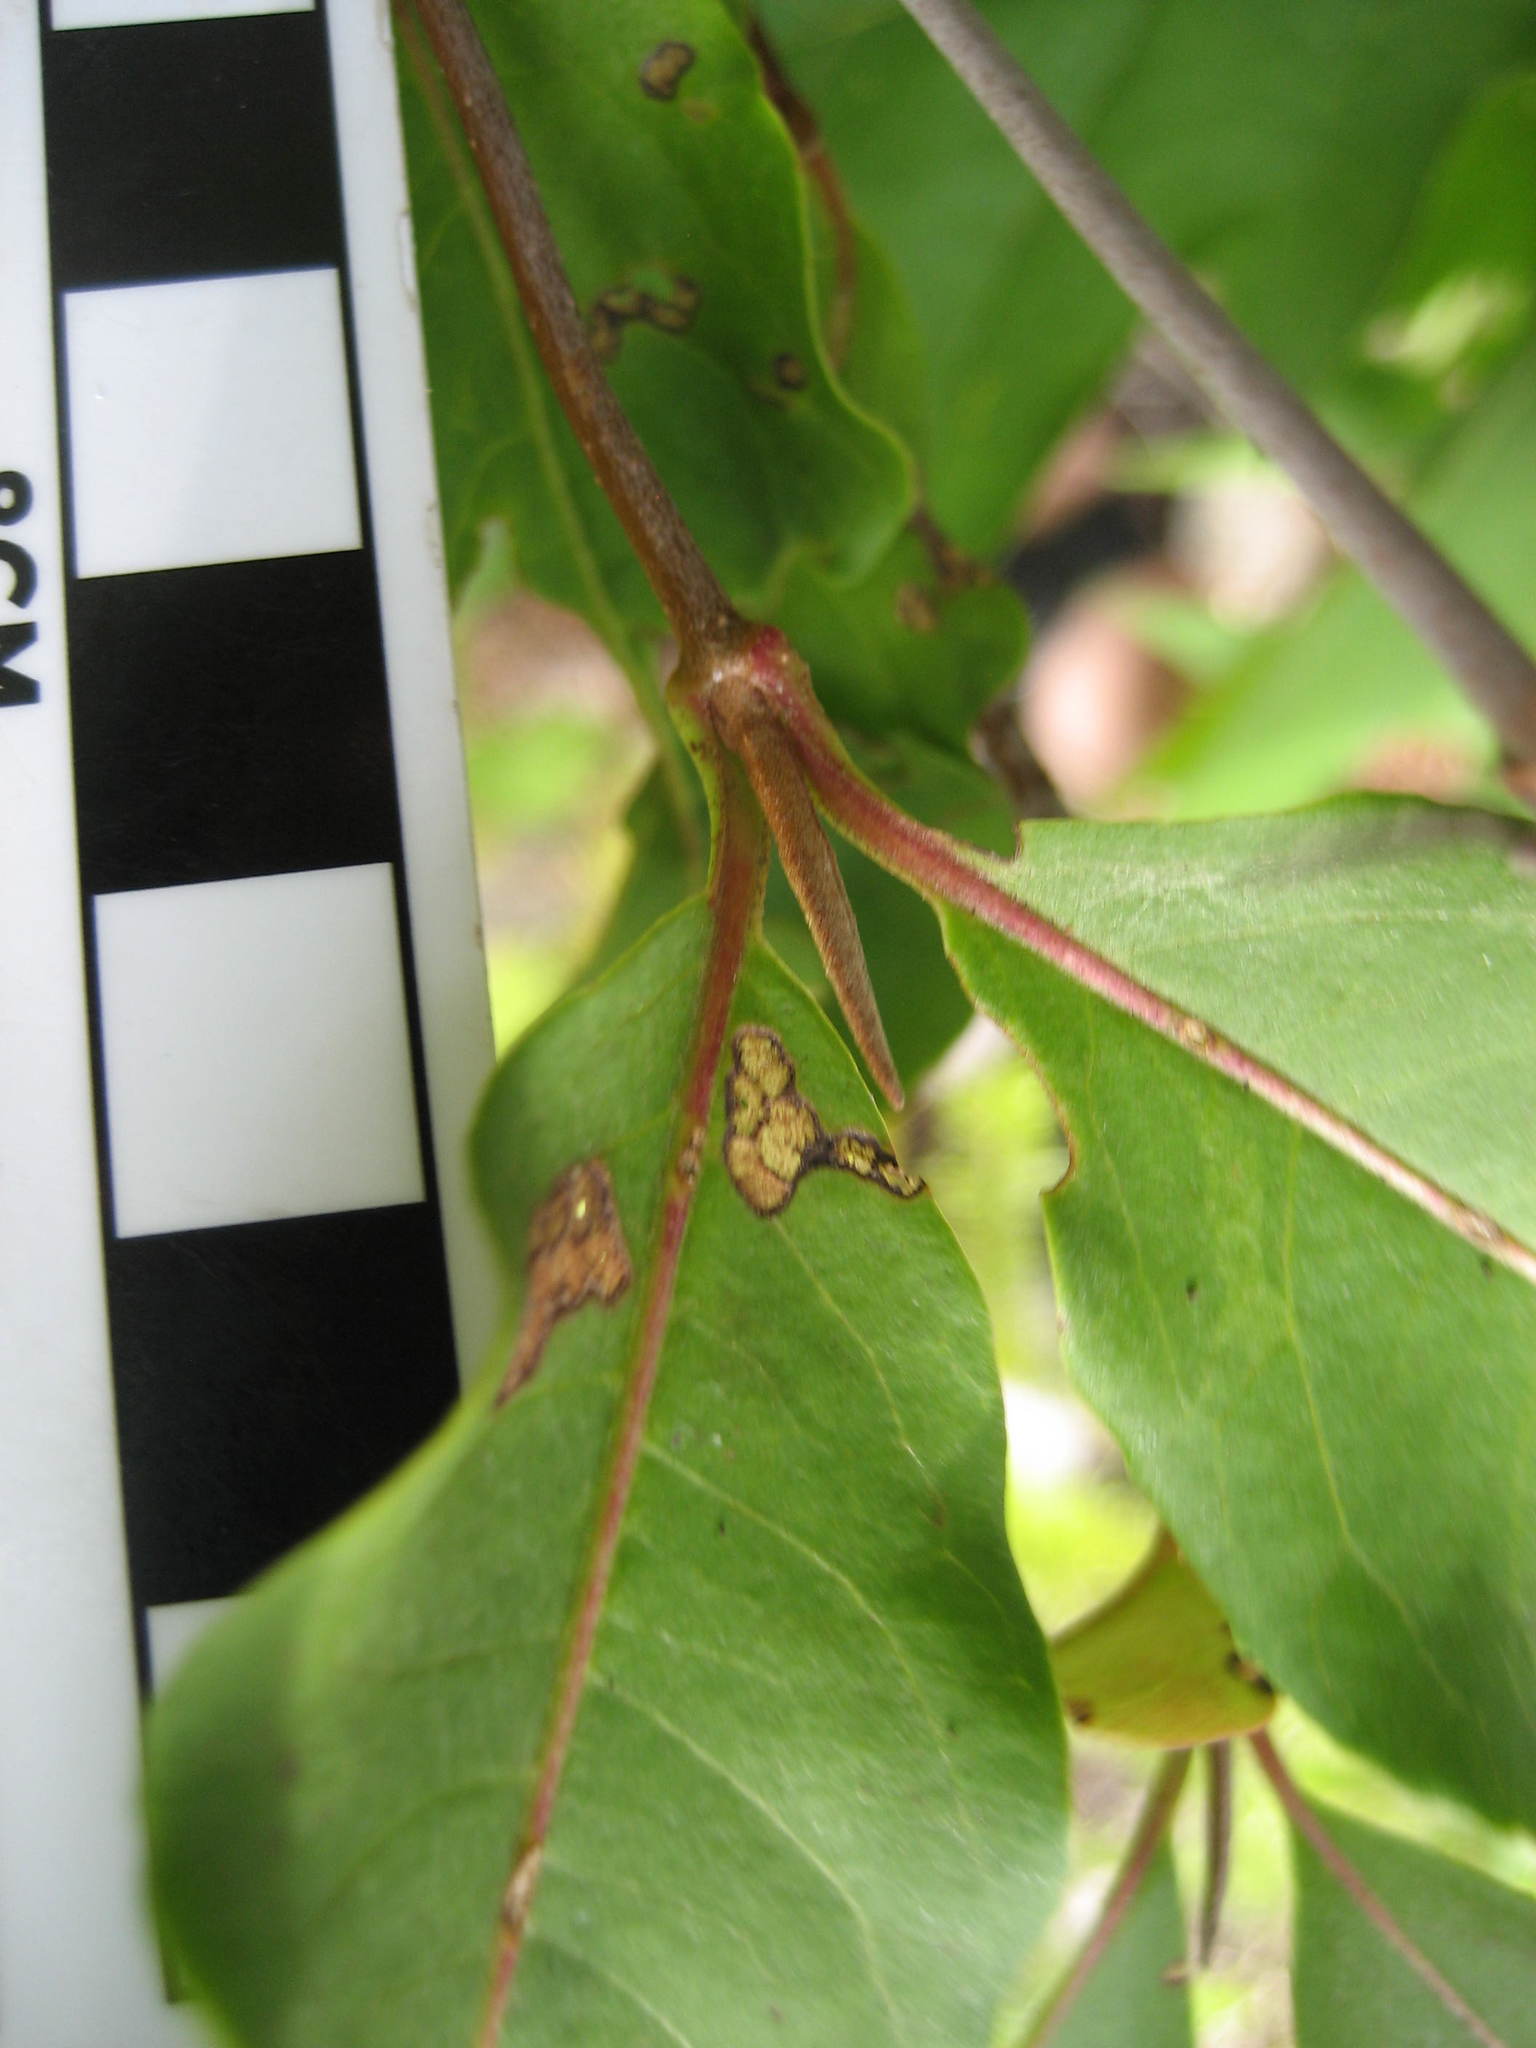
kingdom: Plantae
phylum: Tracheophyta
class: Magnoliopsida
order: Dipsacales
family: Viburnaceae
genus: Viburnum
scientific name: Viburnum cassinoides
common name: Swamp haw
